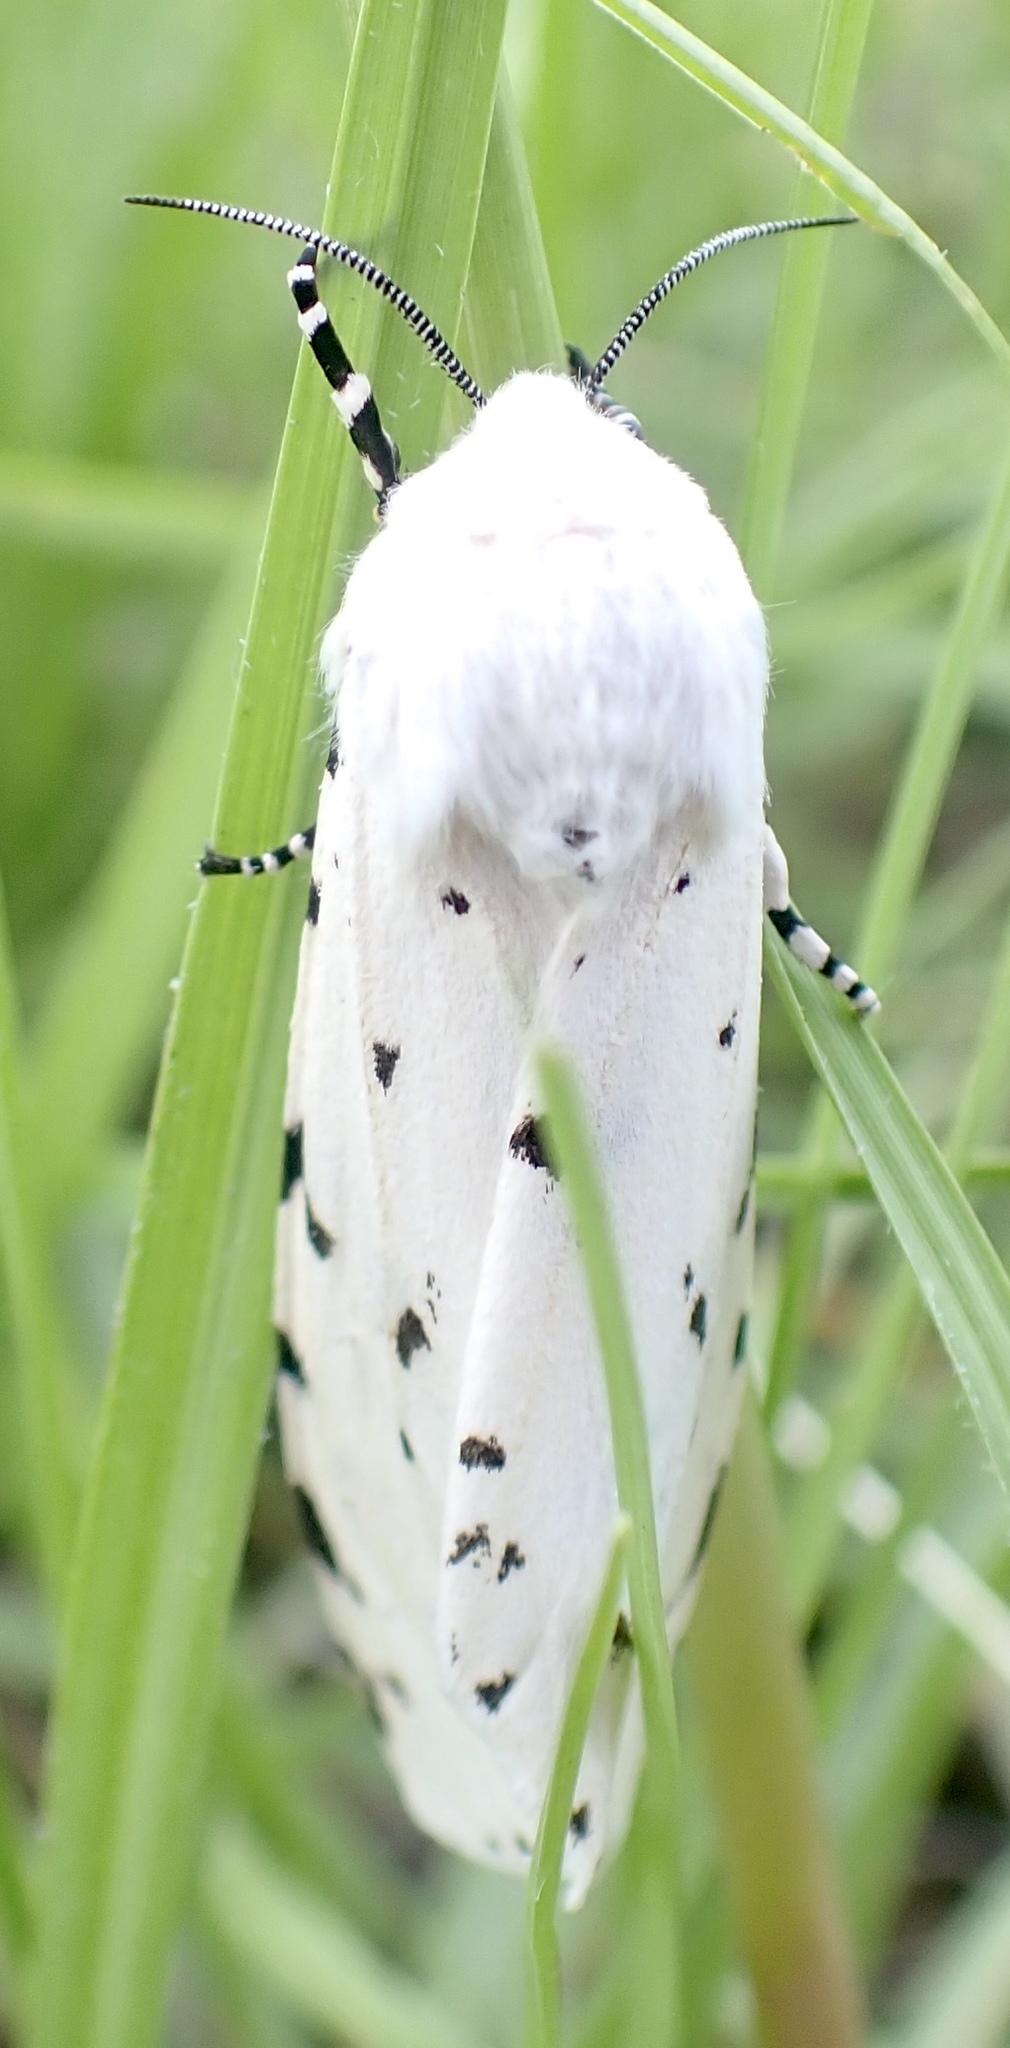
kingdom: Animalia
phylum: Arthropoda
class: Insecta
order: Lepidoptera
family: Erebidae
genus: Estigmene
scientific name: Estigmene acrea
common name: Salt marsh moth
